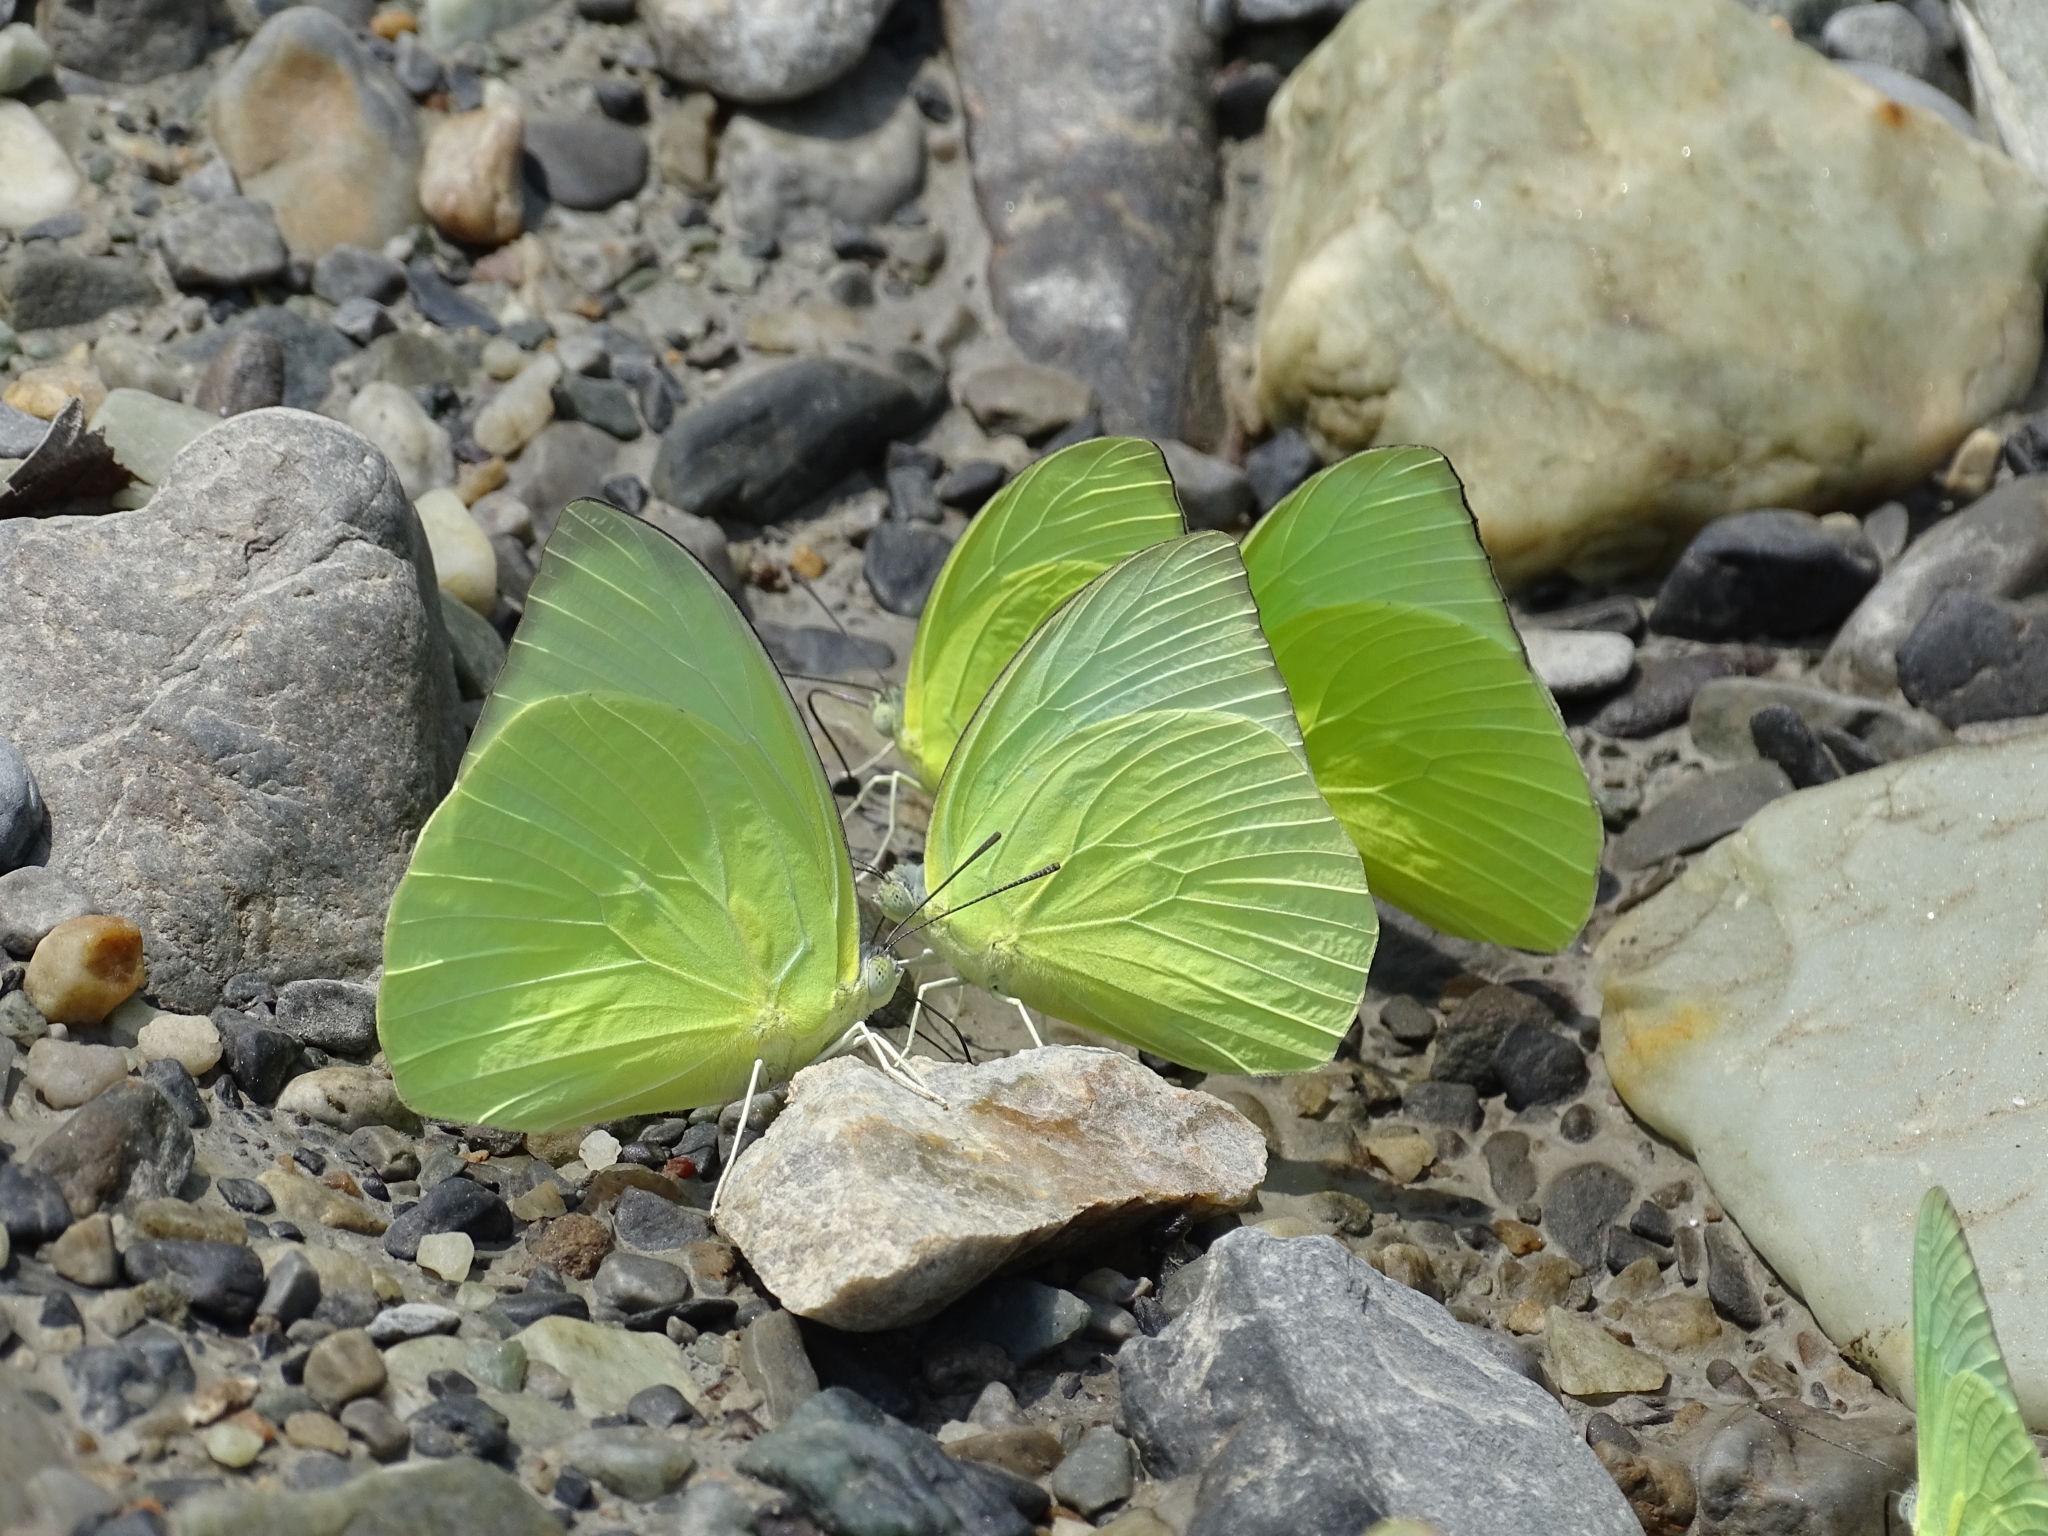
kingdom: Animalia
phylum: Arthropoda
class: Insecta
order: Lepidoptera
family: Pieridae
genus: Catopsilia
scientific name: Catopsilia pomona
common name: Common emigrant
